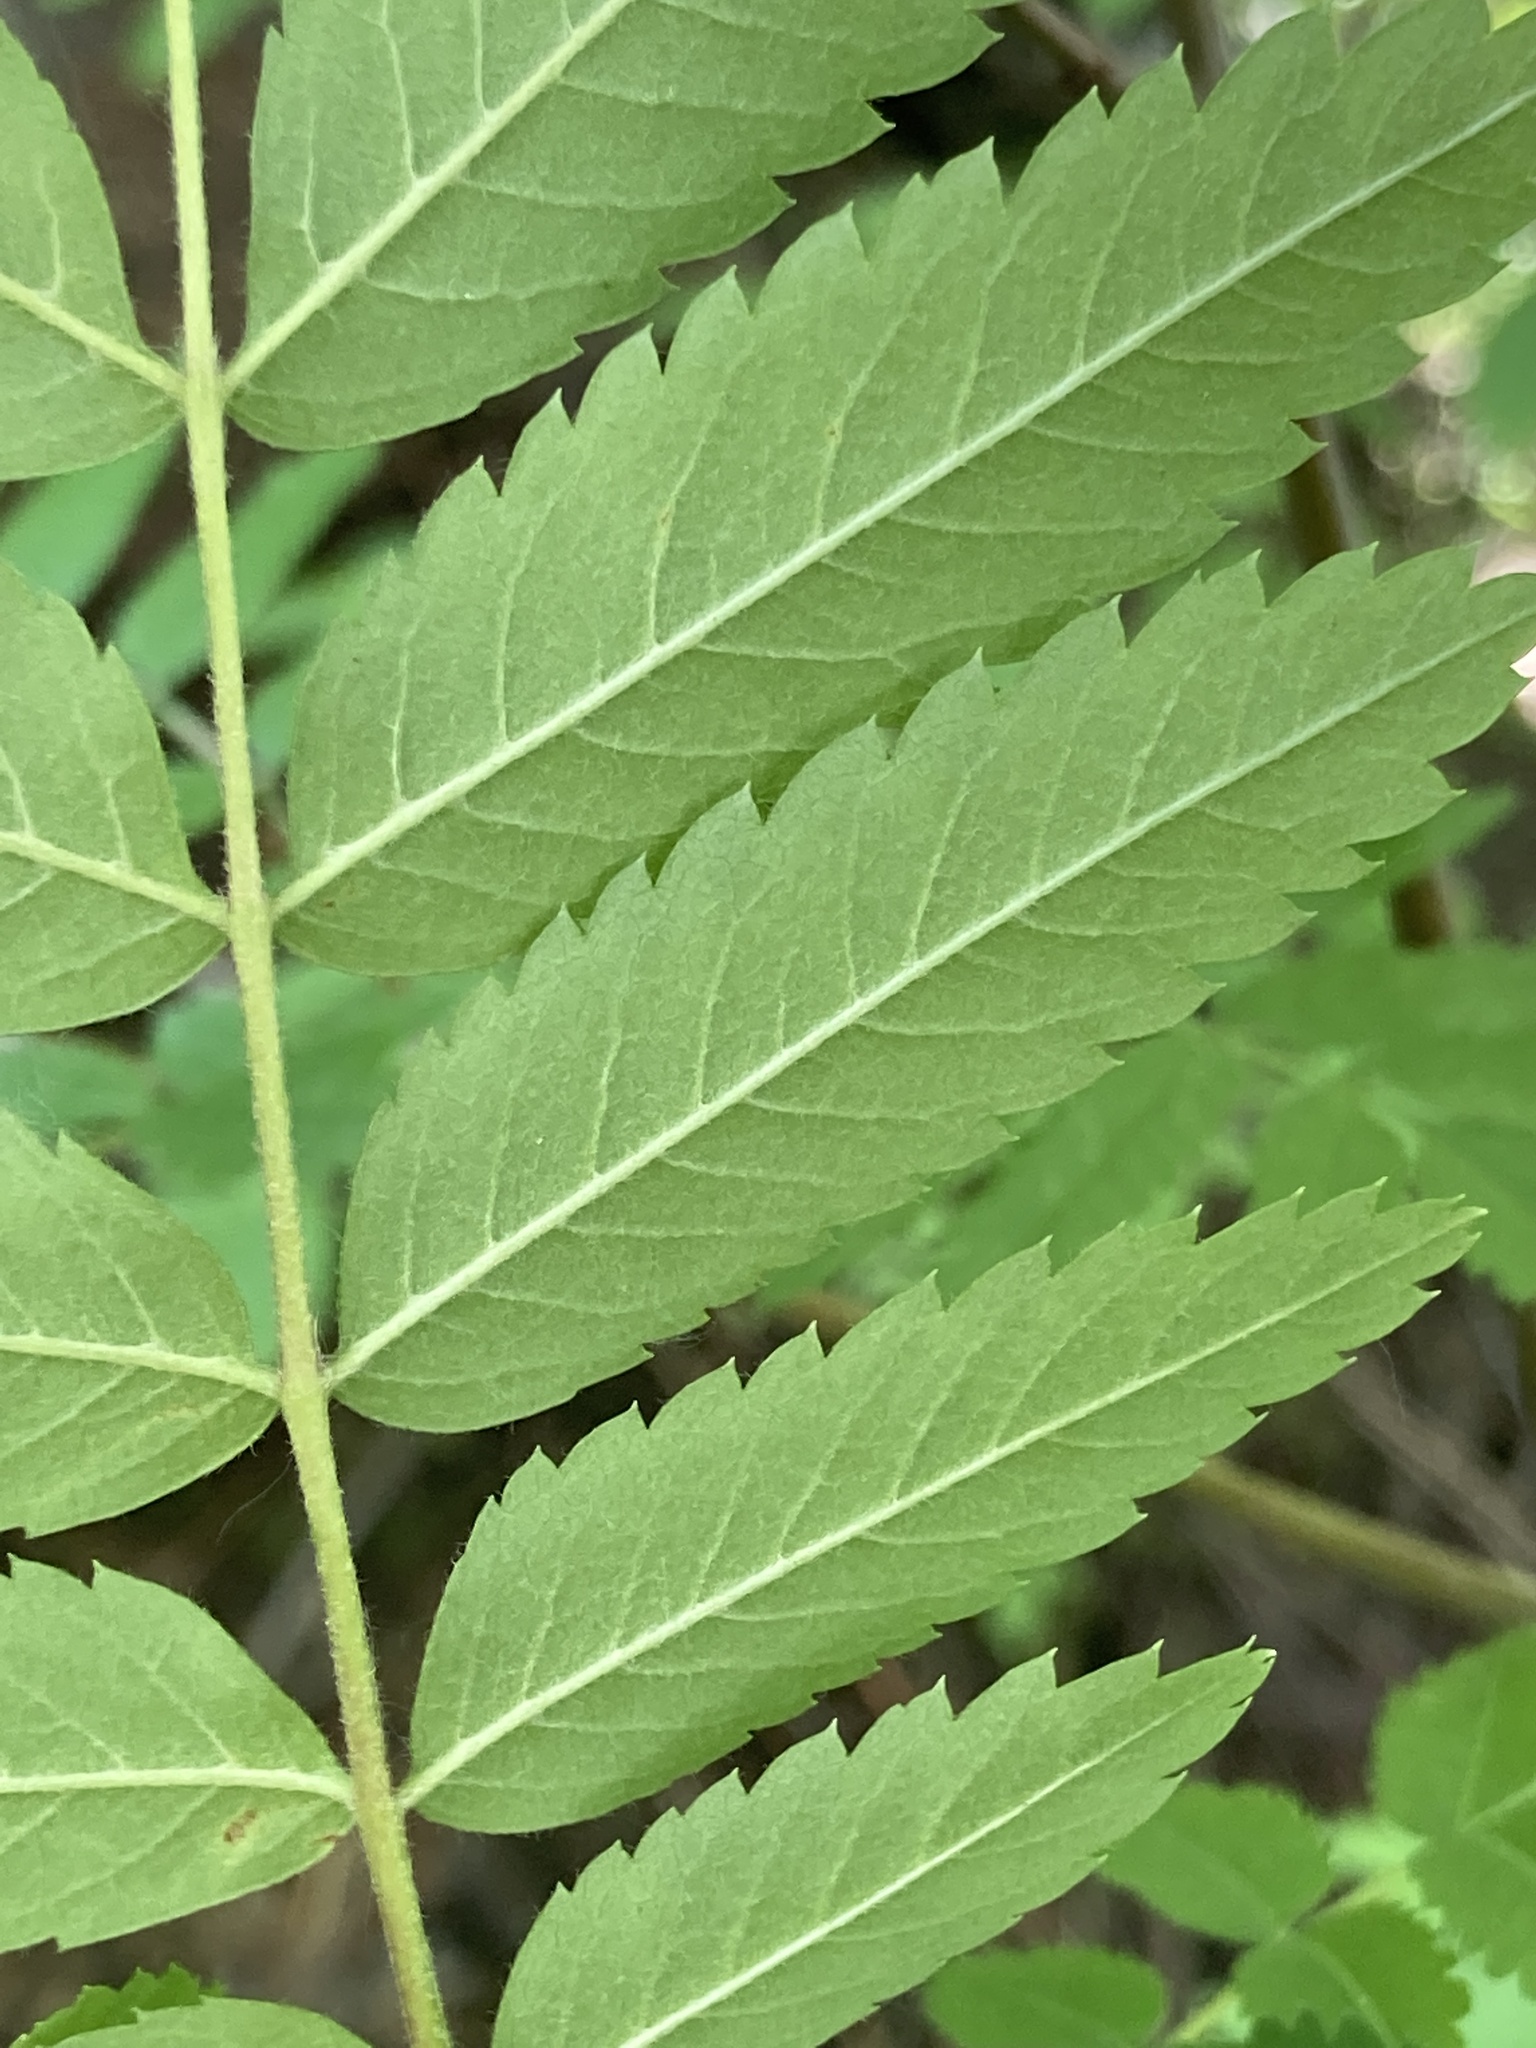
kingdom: Plantae
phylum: Tracheophyta
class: Magnoliopsida
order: Rosales
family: Rosaceae
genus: Sorbus
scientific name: Sorbus aucuparia
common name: Rowan
